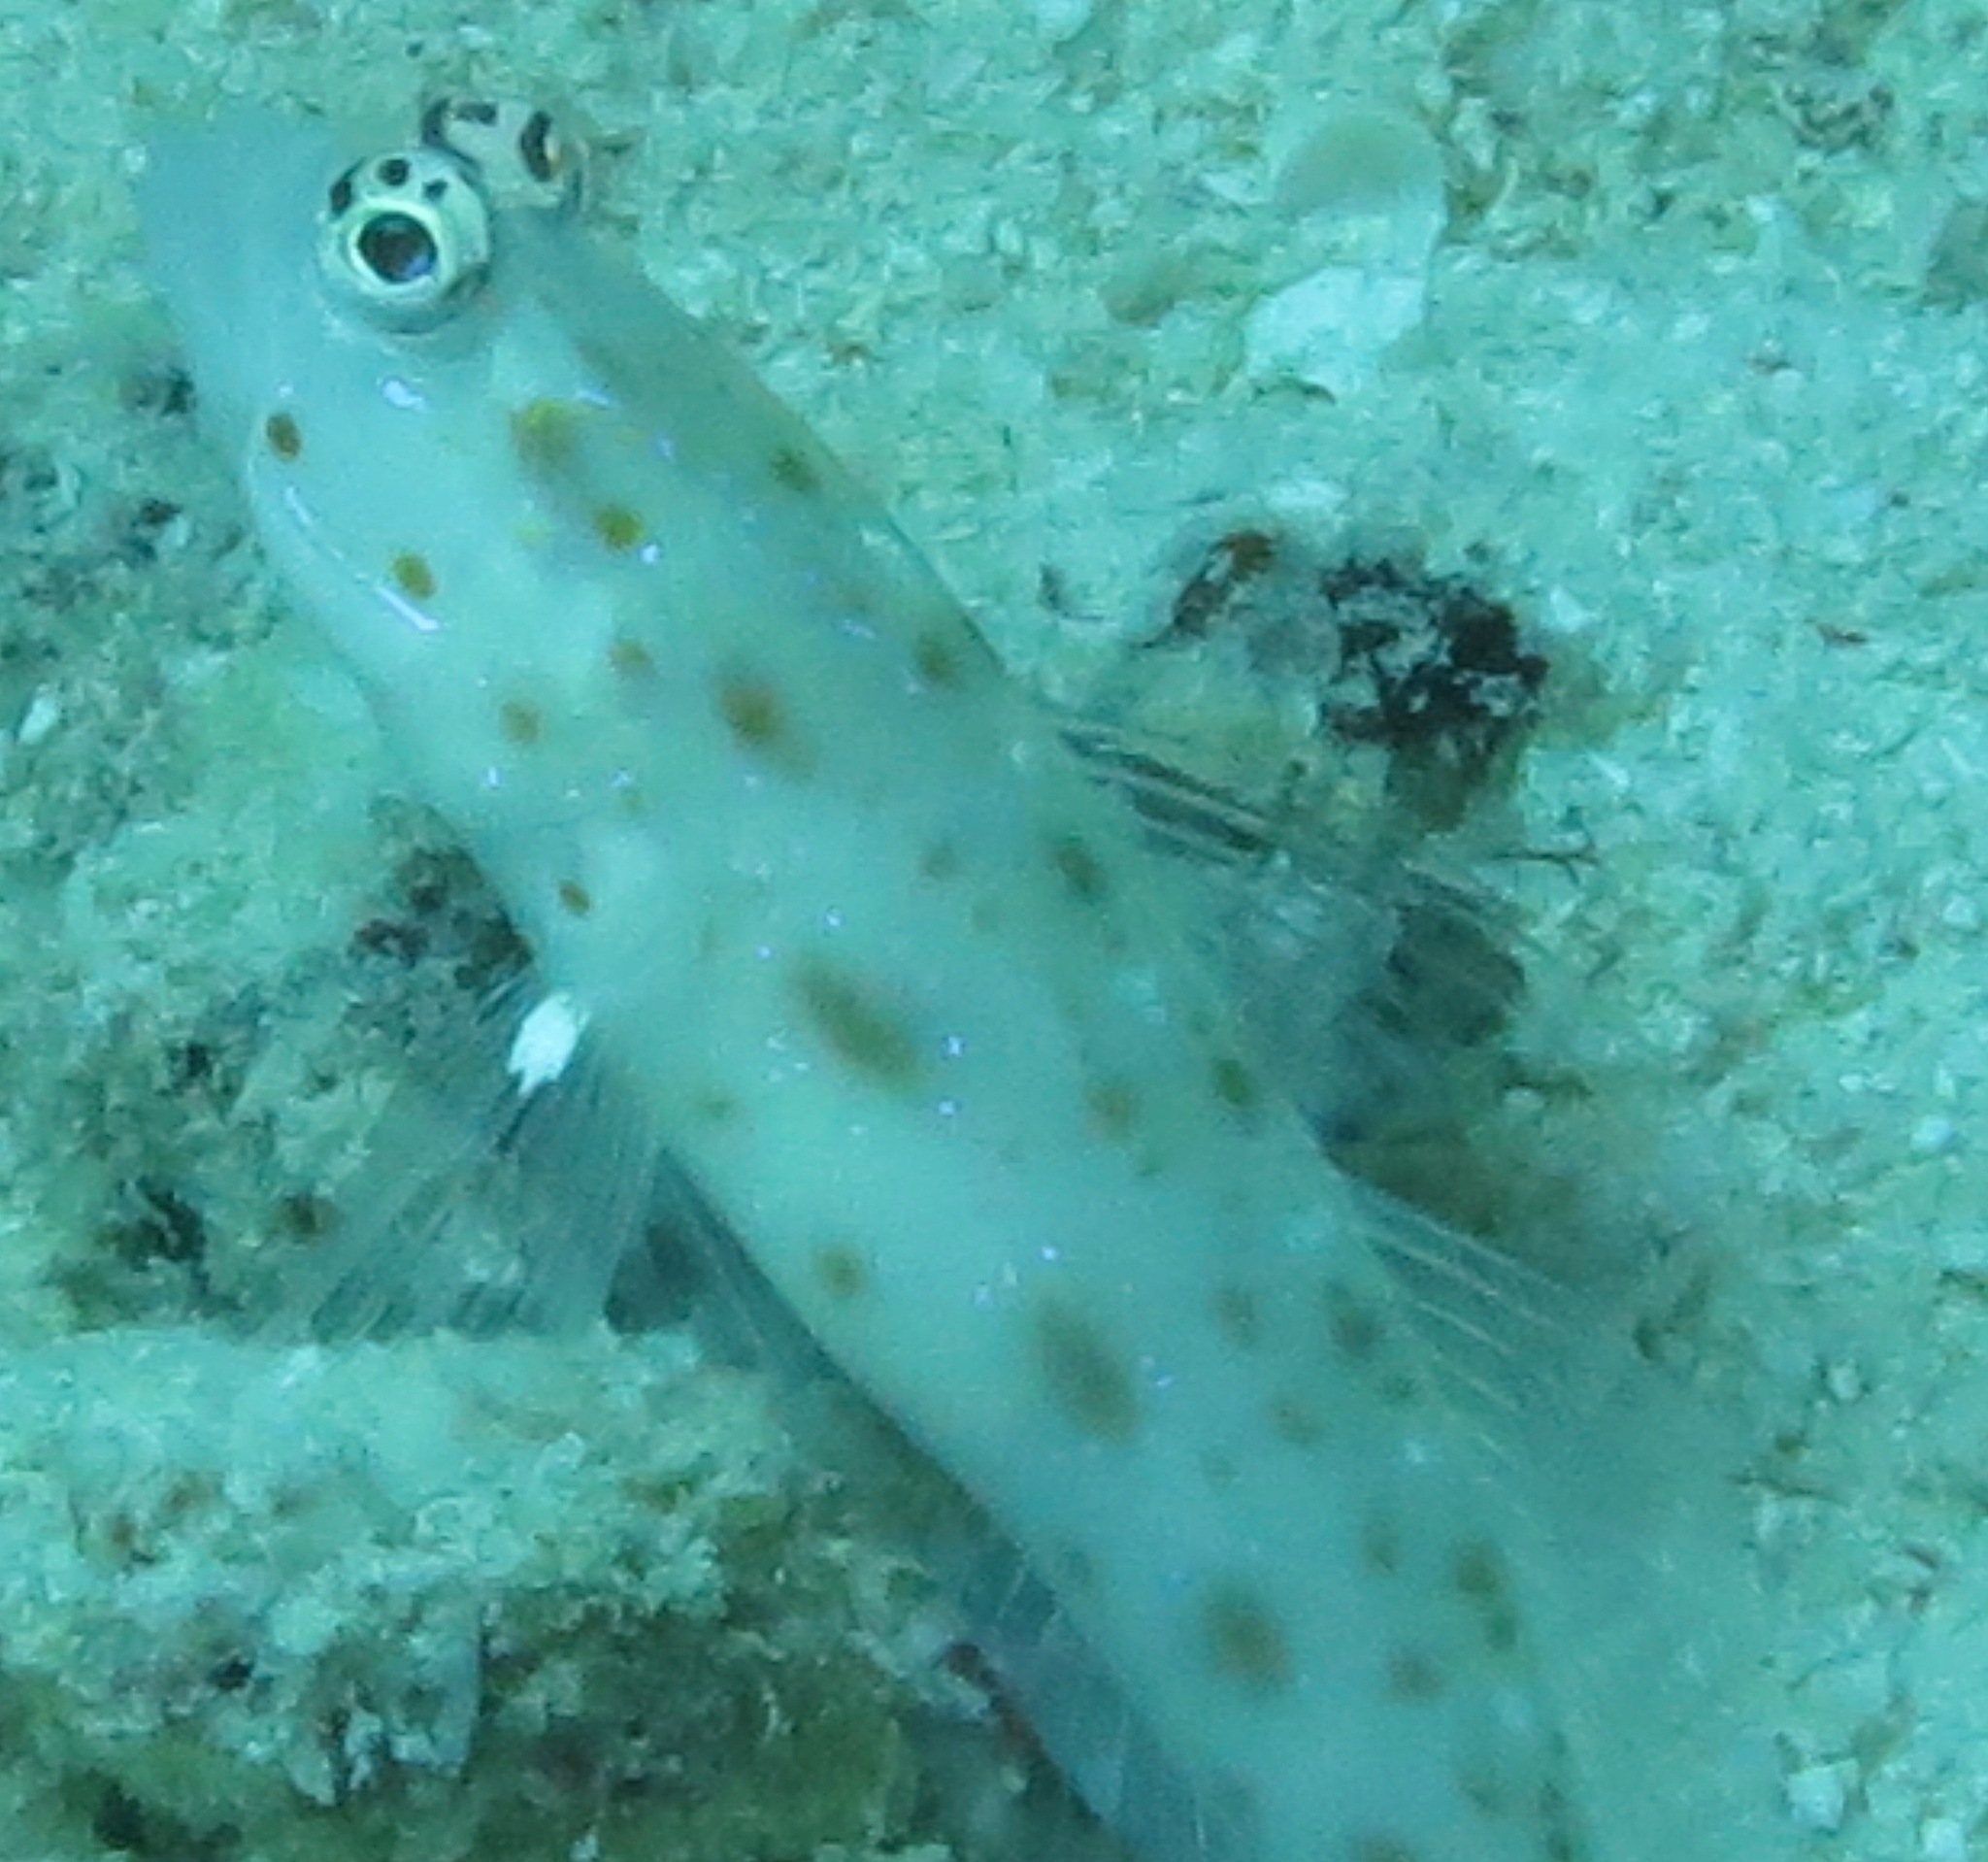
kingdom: Animalia
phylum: Chordata
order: Perciformes
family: Gobiidae
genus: Ctenogobiops
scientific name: Ctenogobiops mitodes
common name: Thread shrimpgoby
